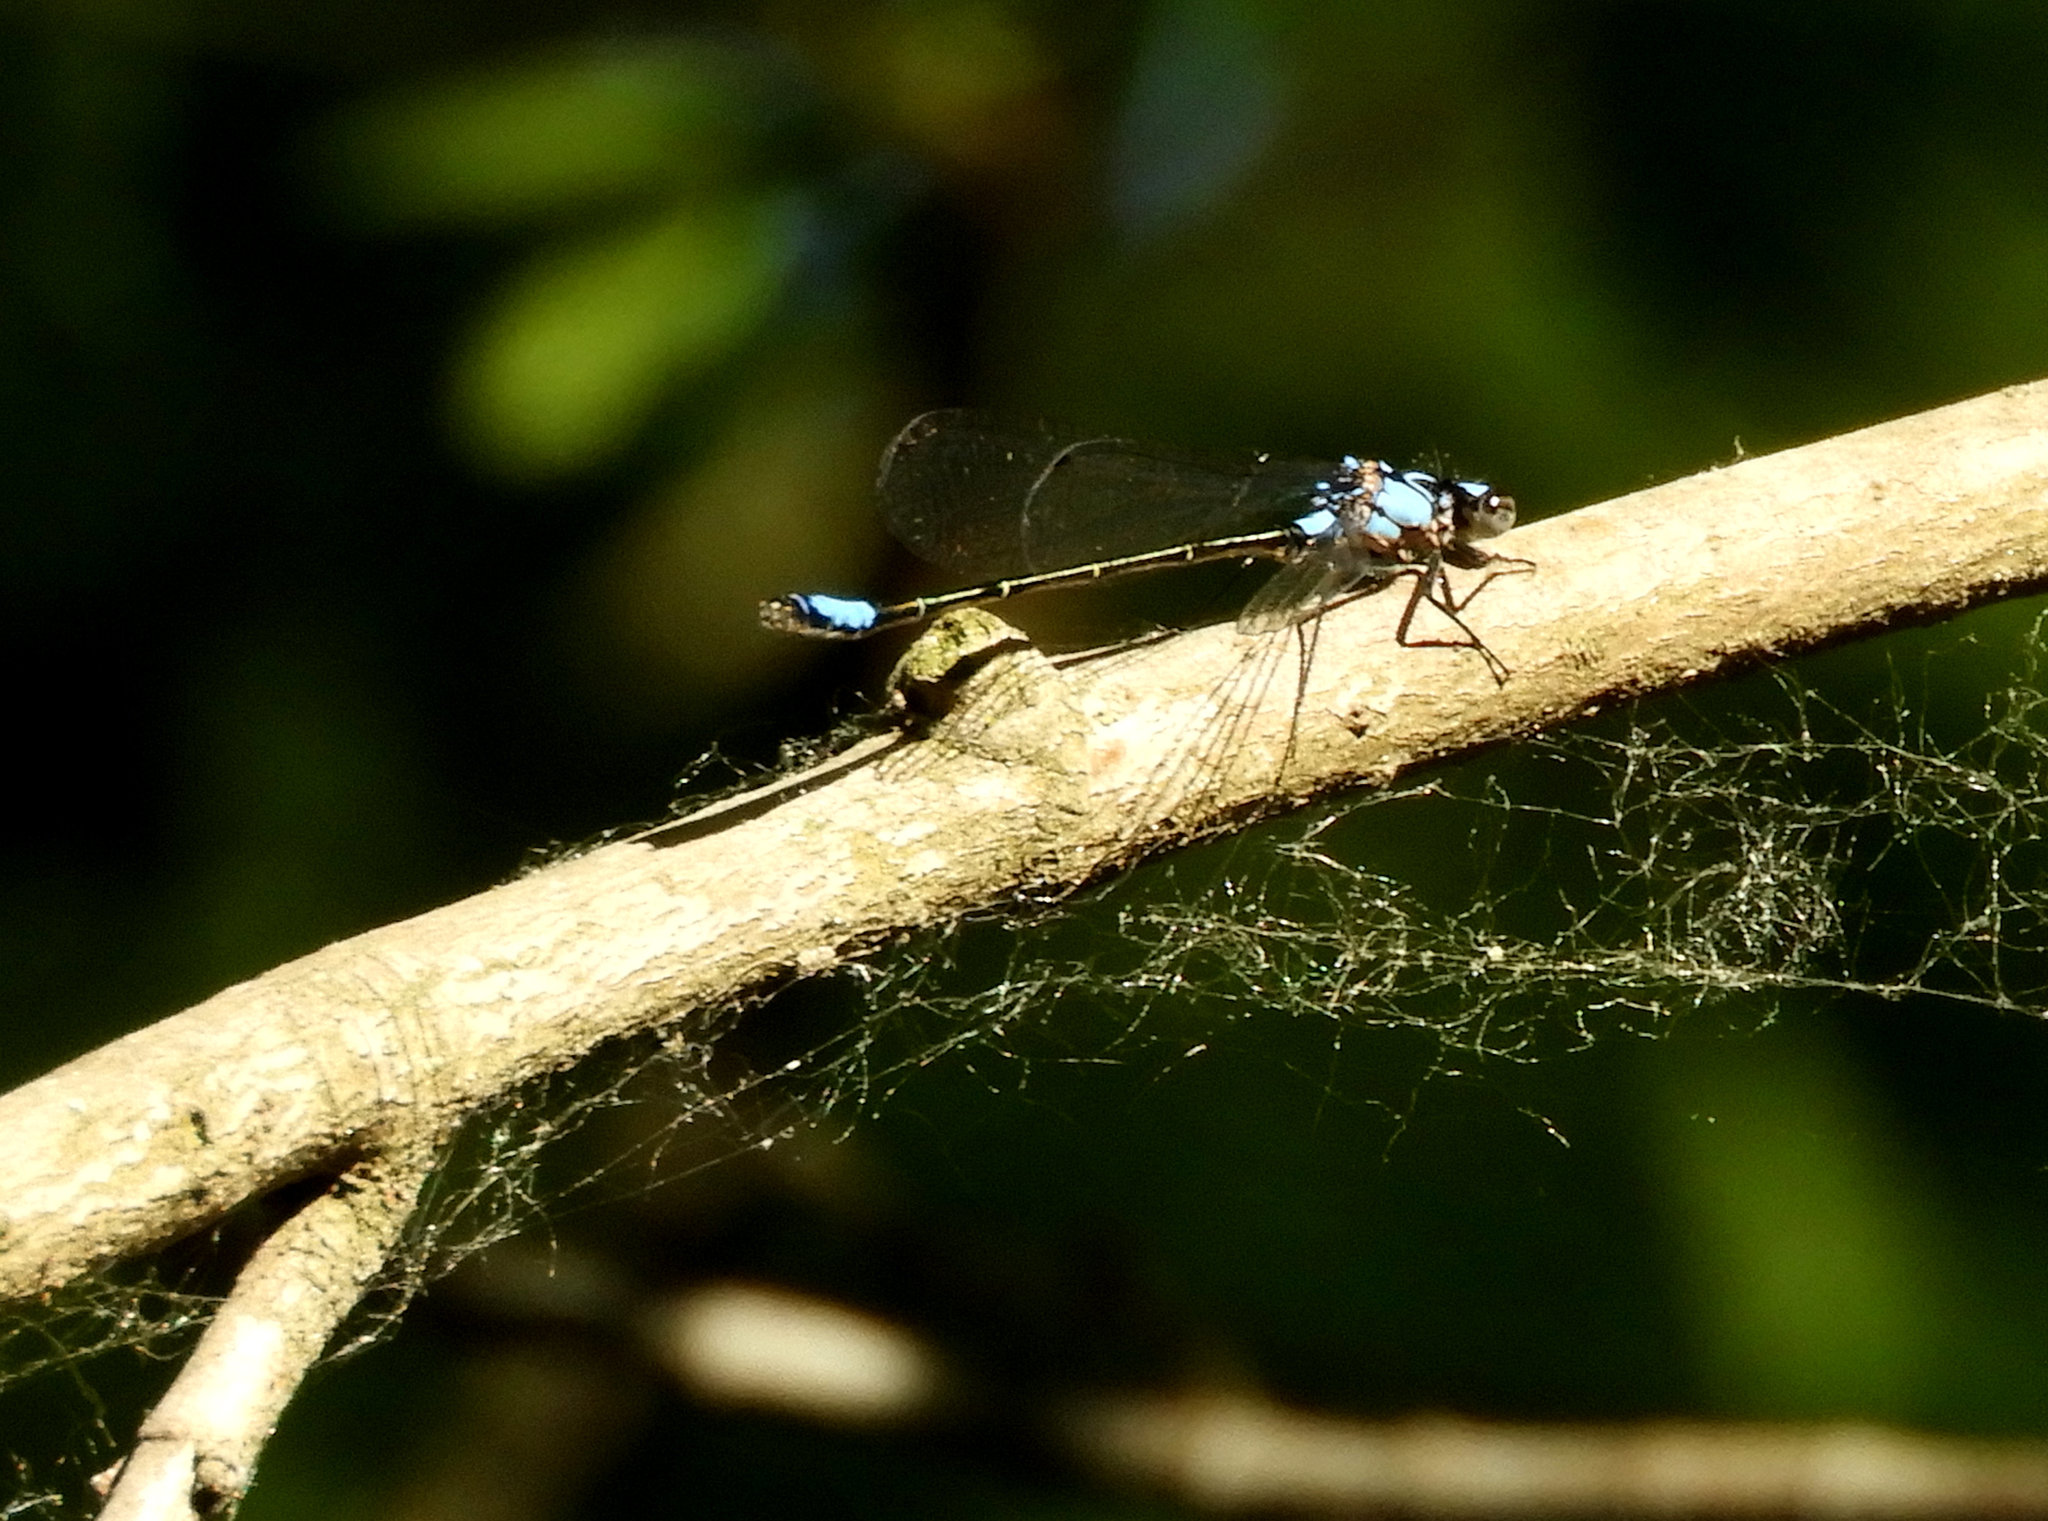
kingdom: Animalia
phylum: Arthropoda
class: Insecta
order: Odonata
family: Coenagrionidae
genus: Zoniagrion
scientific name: Zoniagrion exclamationis
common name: Exclamation damsel
